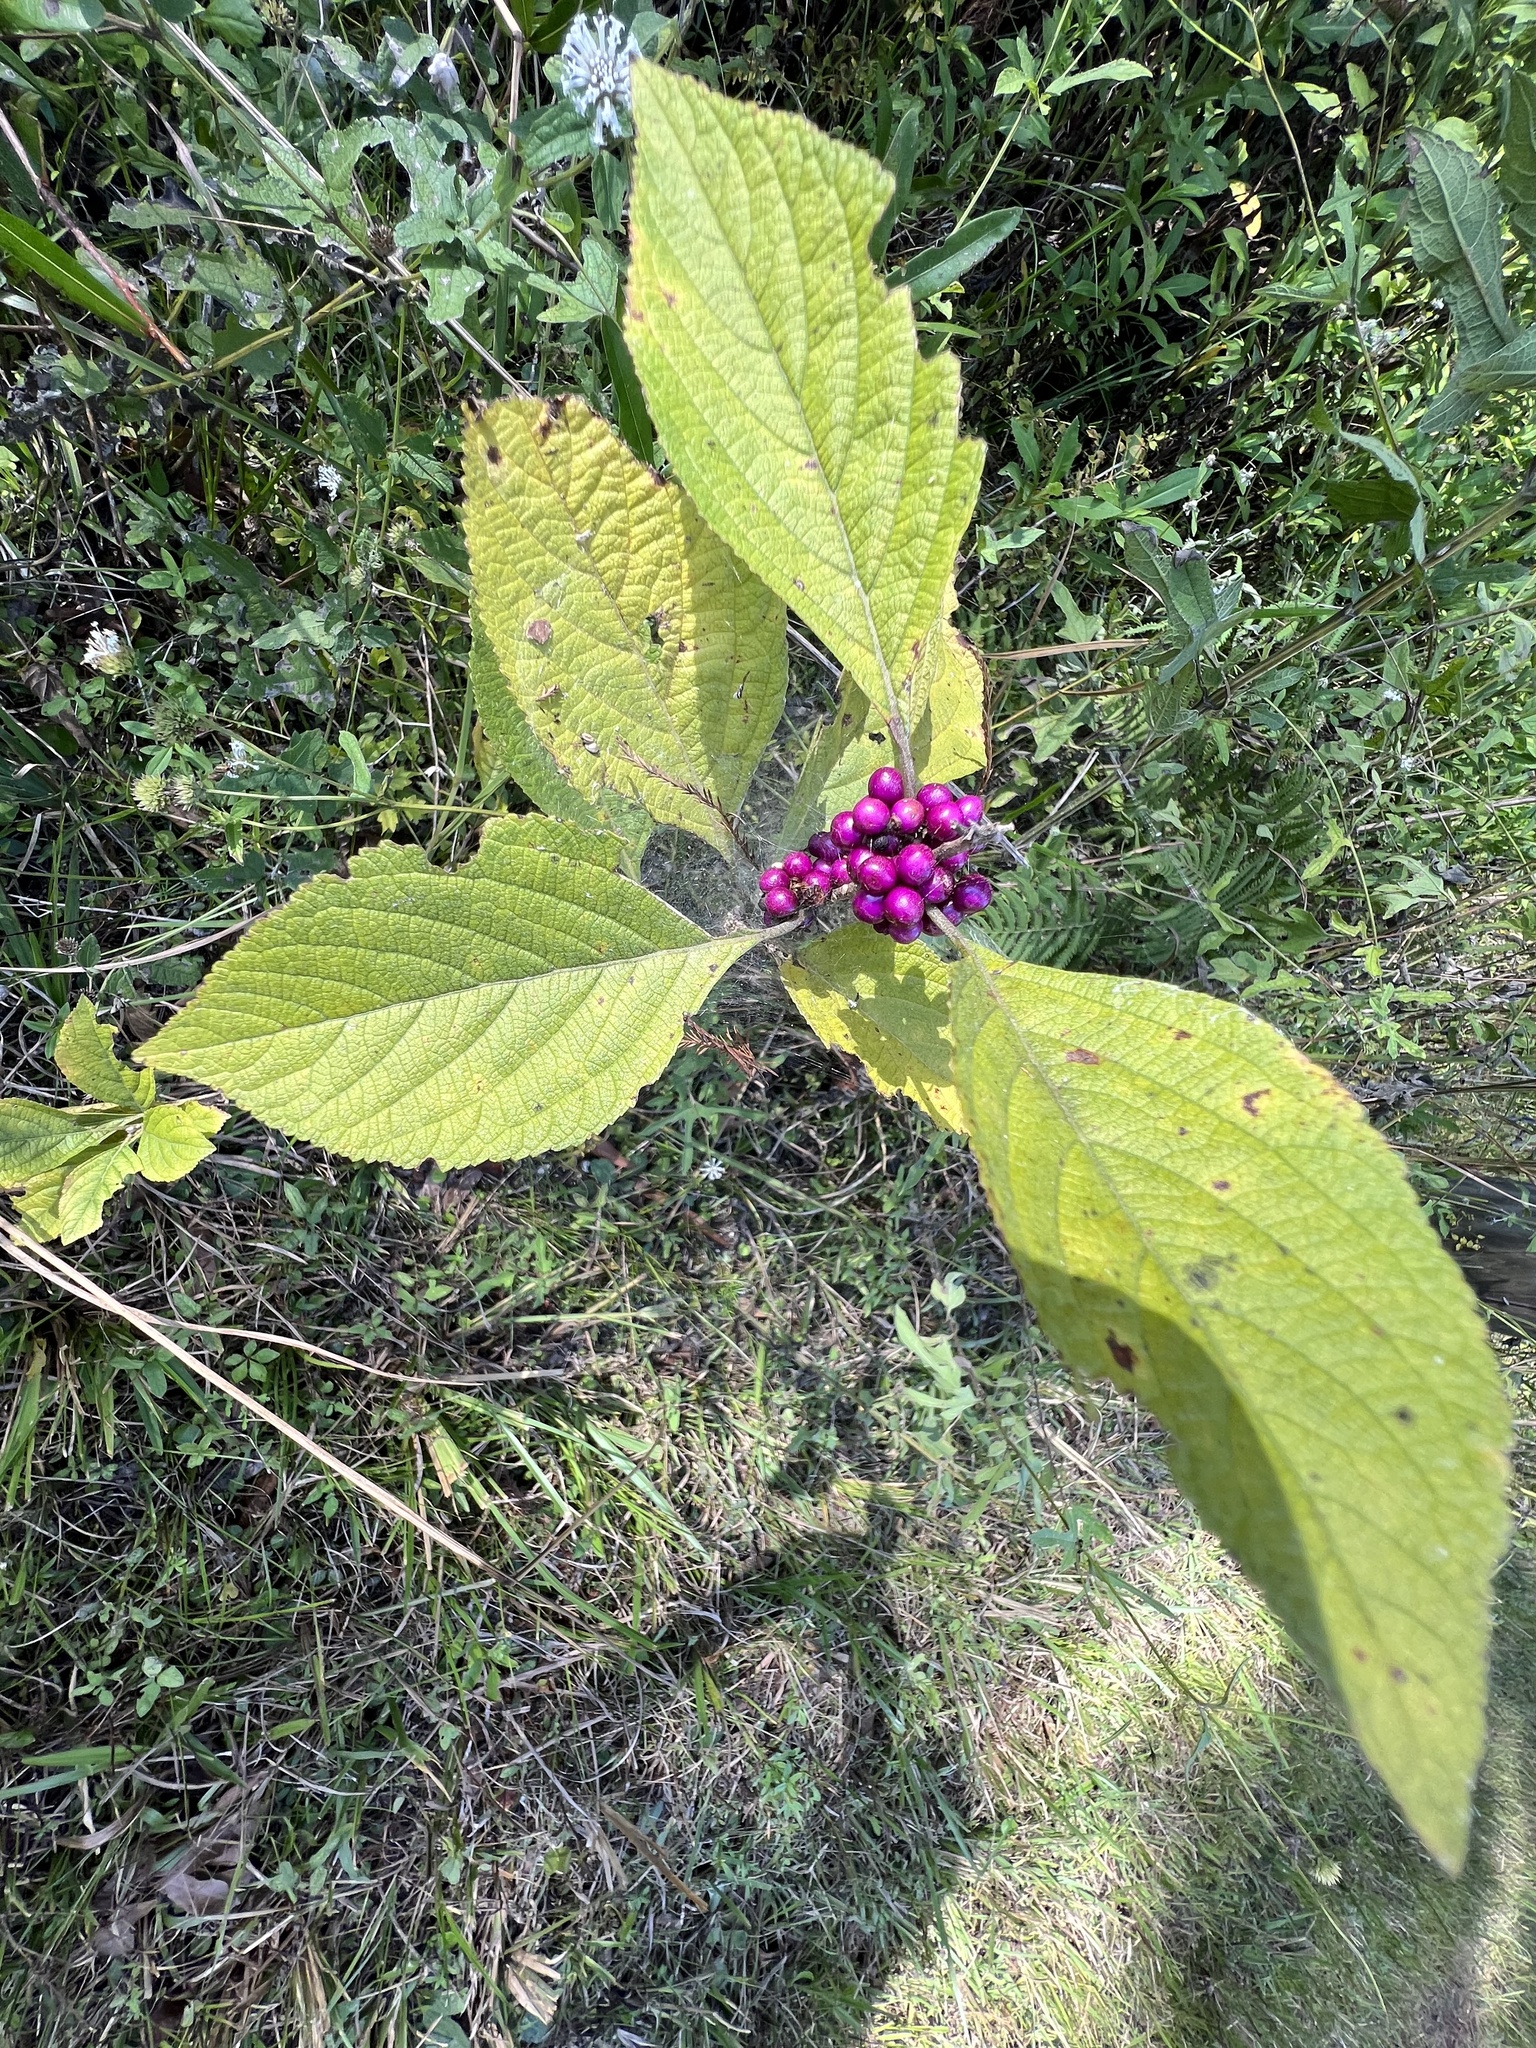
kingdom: Plantae
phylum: Tracheophyta
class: Magnoliopsida
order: Lamiales
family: Lamiaceae
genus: Callicarpa
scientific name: Callicarpa americana
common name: American beautyberry
